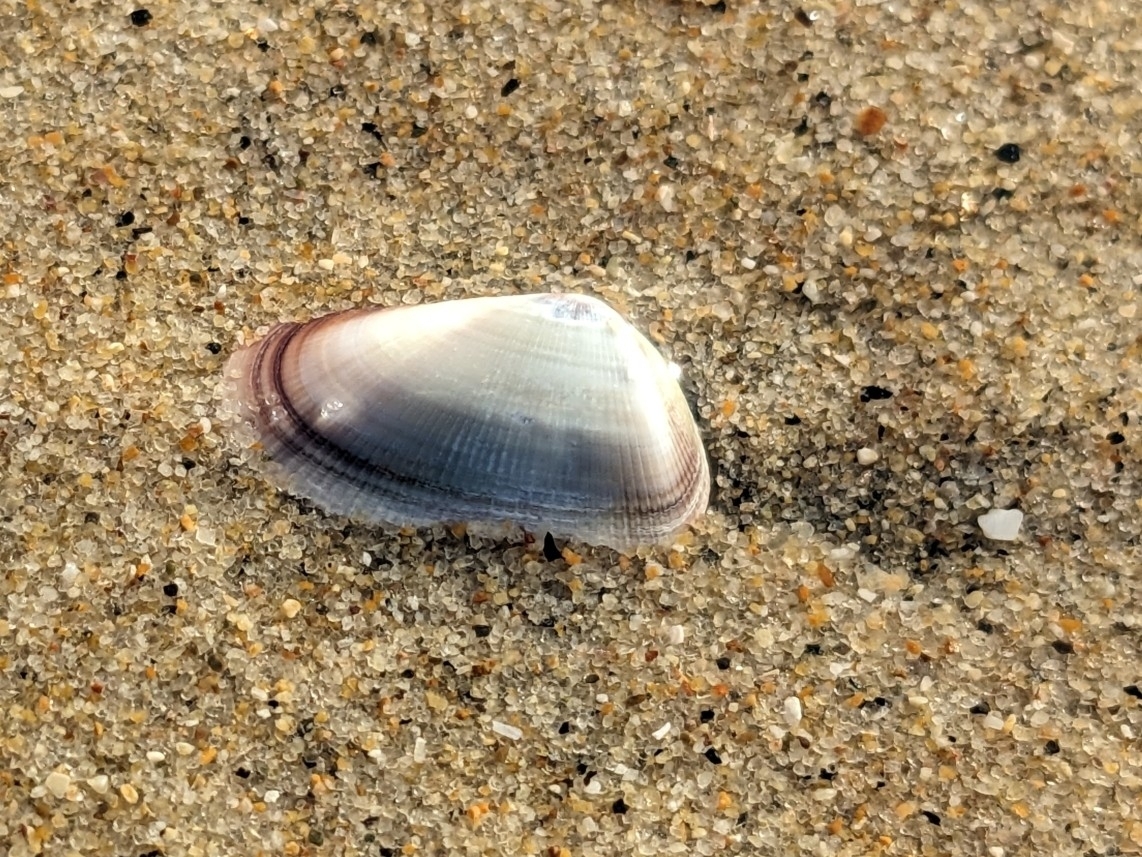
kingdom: Animalia
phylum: Mollusca
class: Bivalvia
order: Cardiida
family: Donacidae
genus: Donax
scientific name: Donax gouldii
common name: Gould beanclam
